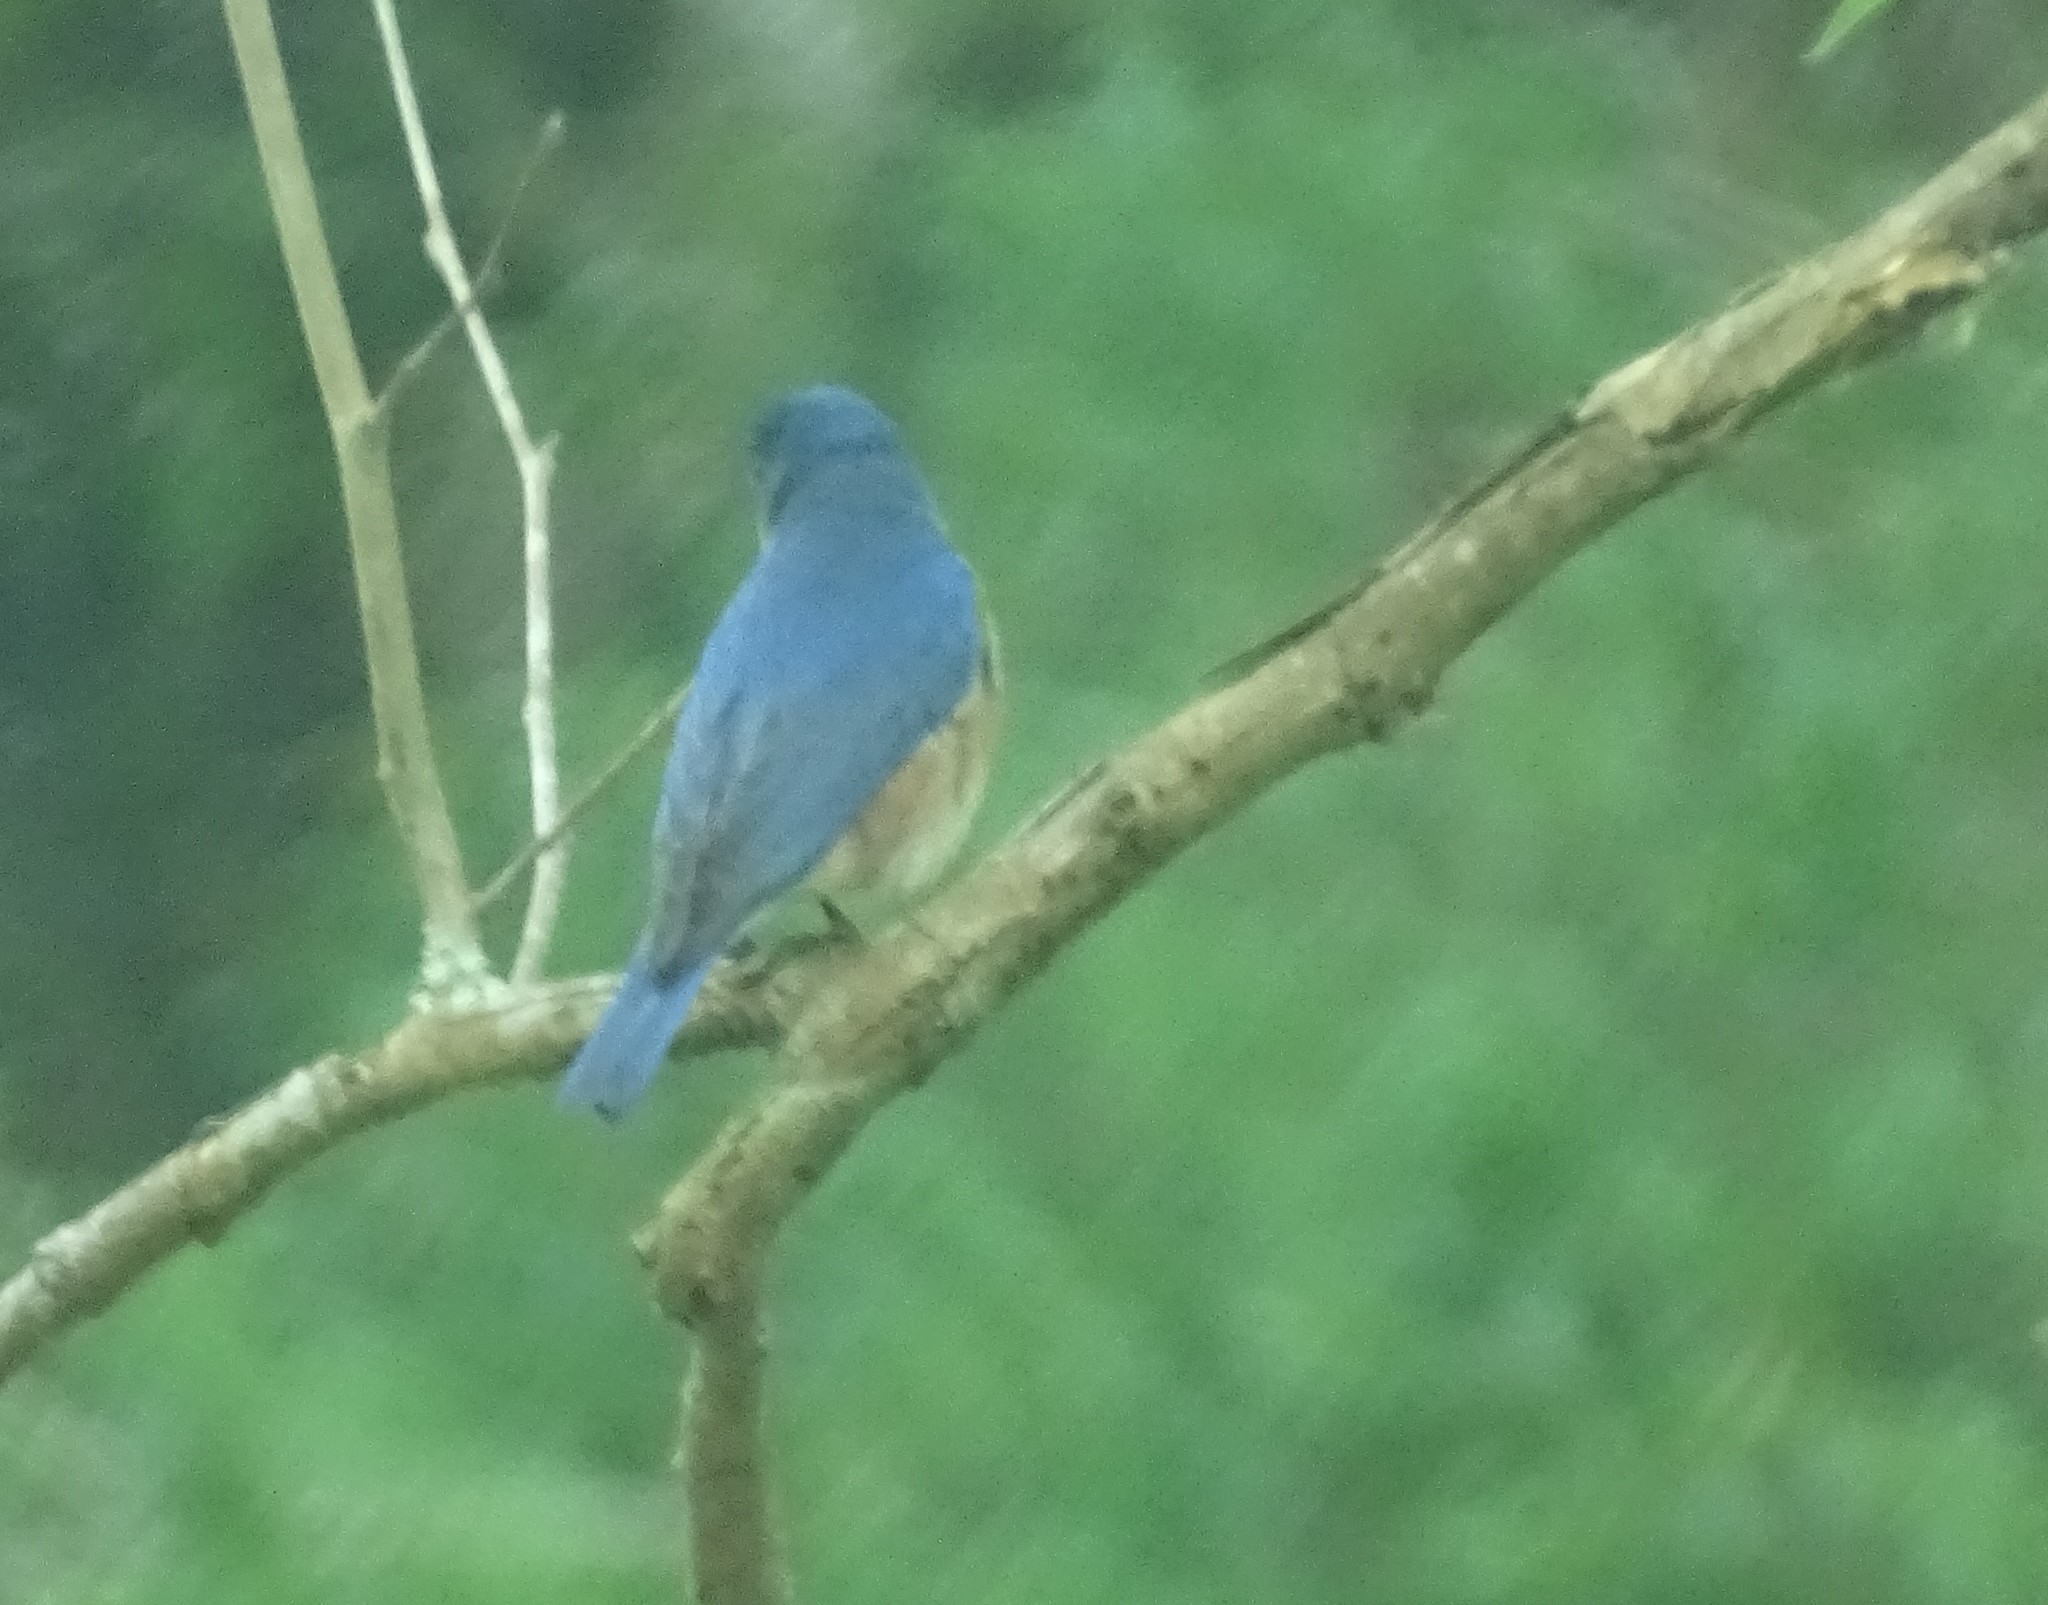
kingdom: Animalia
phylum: Chordata
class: Aves
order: Passeriformes
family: Turdidae
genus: Sialia
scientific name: Sialia sialis
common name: Eastern bluebird
